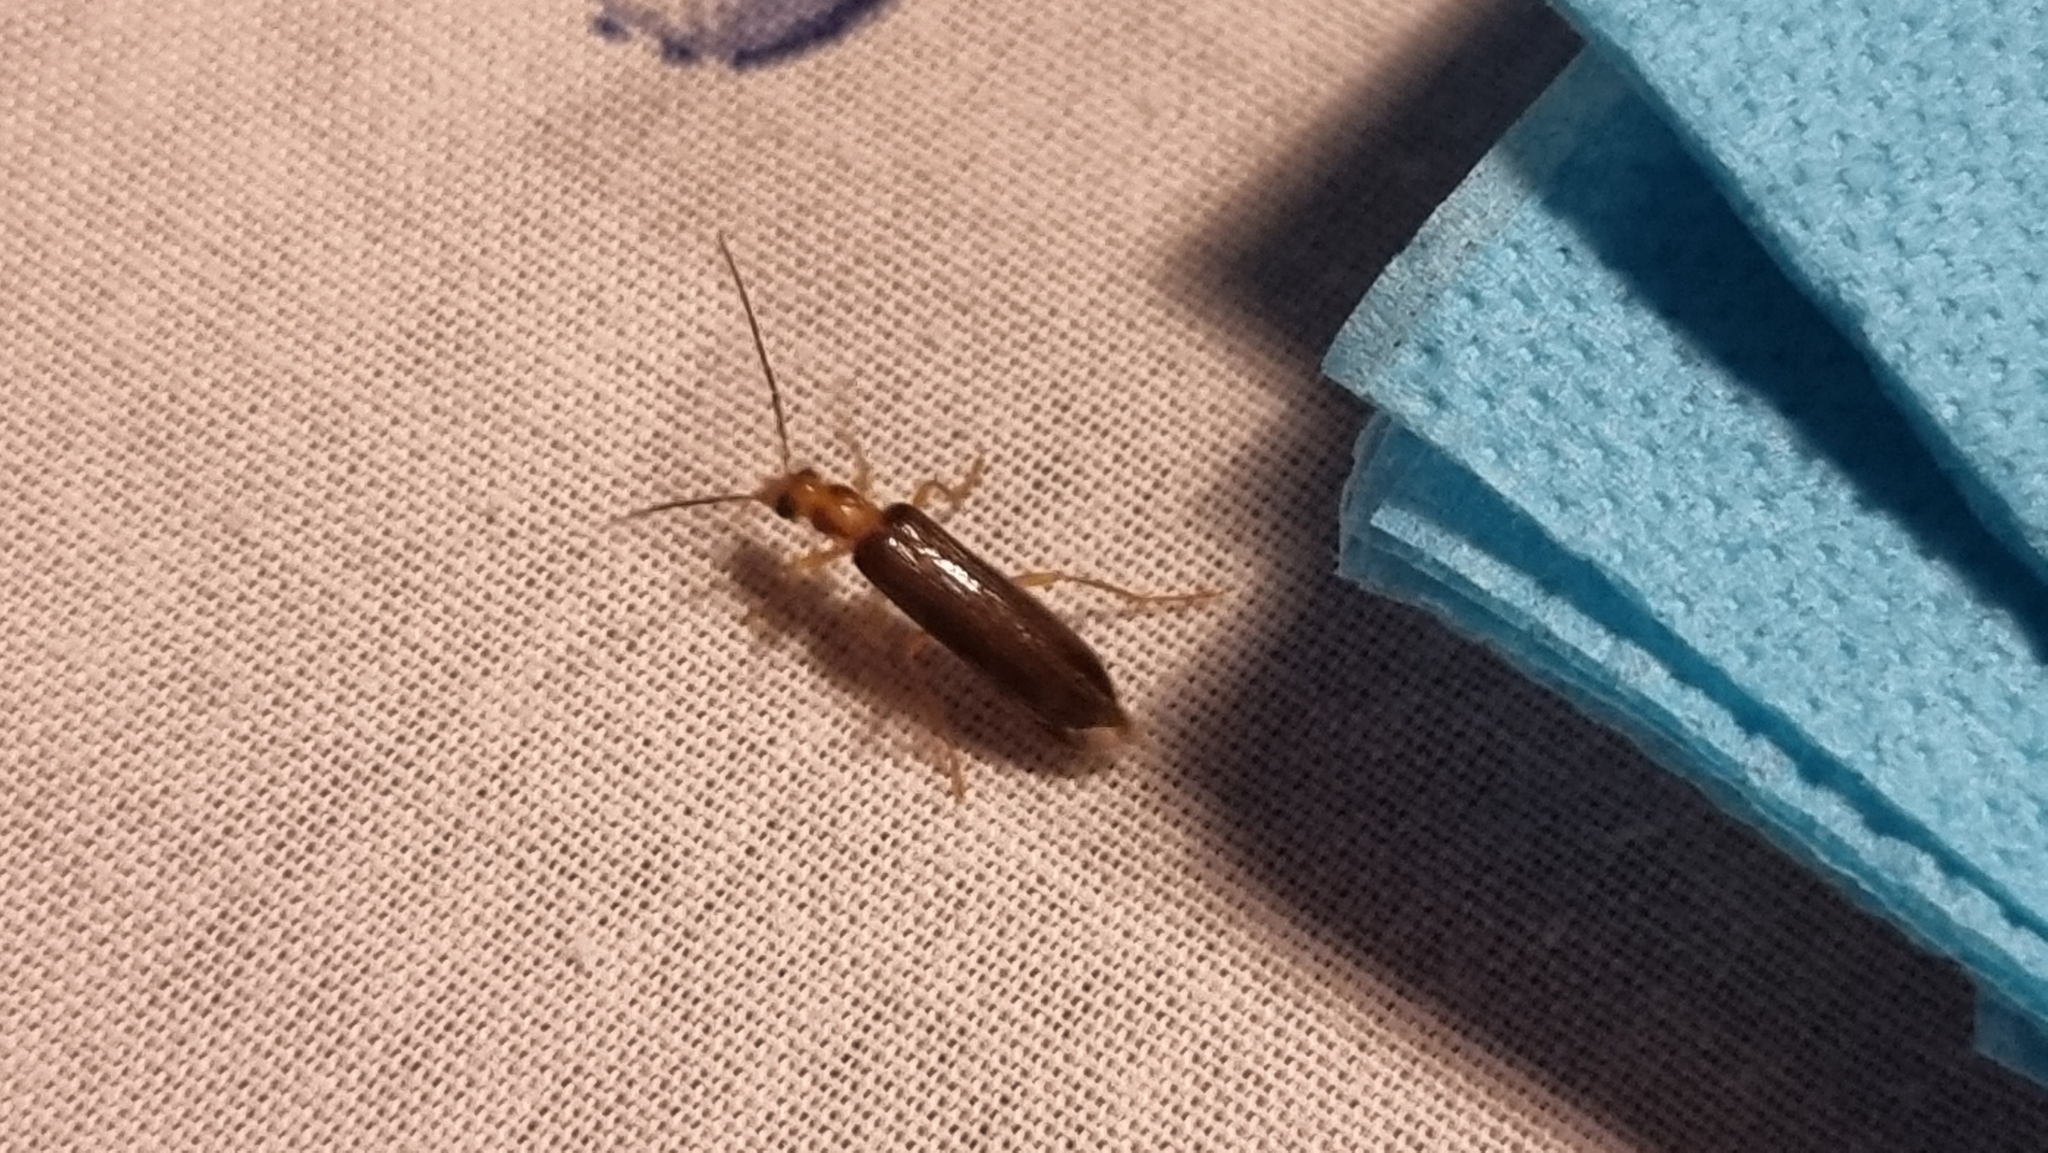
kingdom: Animalia
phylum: Arthropoda
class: Insecta
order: Coleoptera
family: Oedemeridae
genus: Nacerdes
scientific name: Nacerdes carniolica
